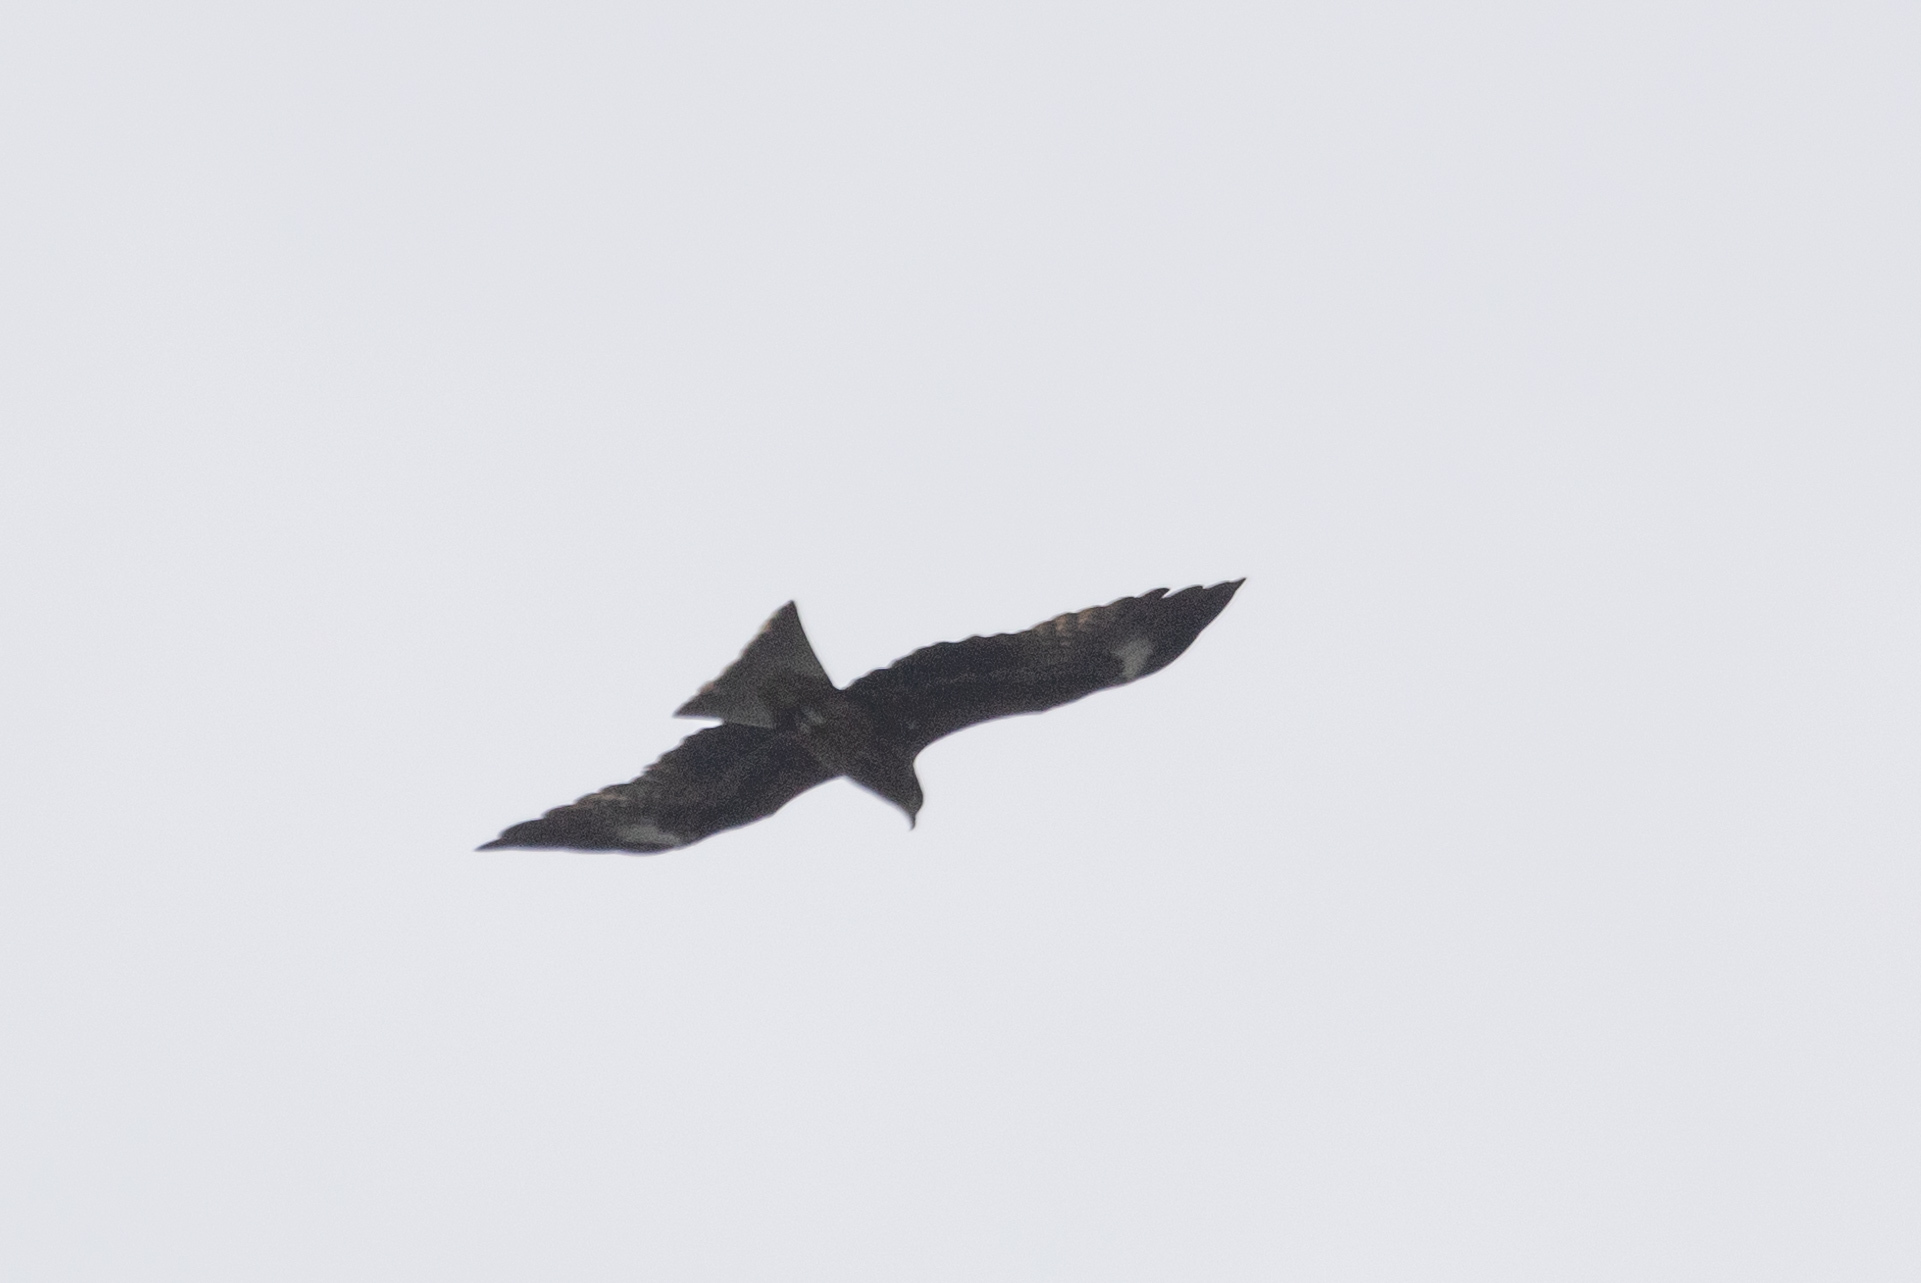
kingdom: Animalia
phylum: Chordata
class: Aves
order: Accipitriformes
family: Accipitridae
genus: Milvus
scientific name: Milvus migrans
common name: Black kite
